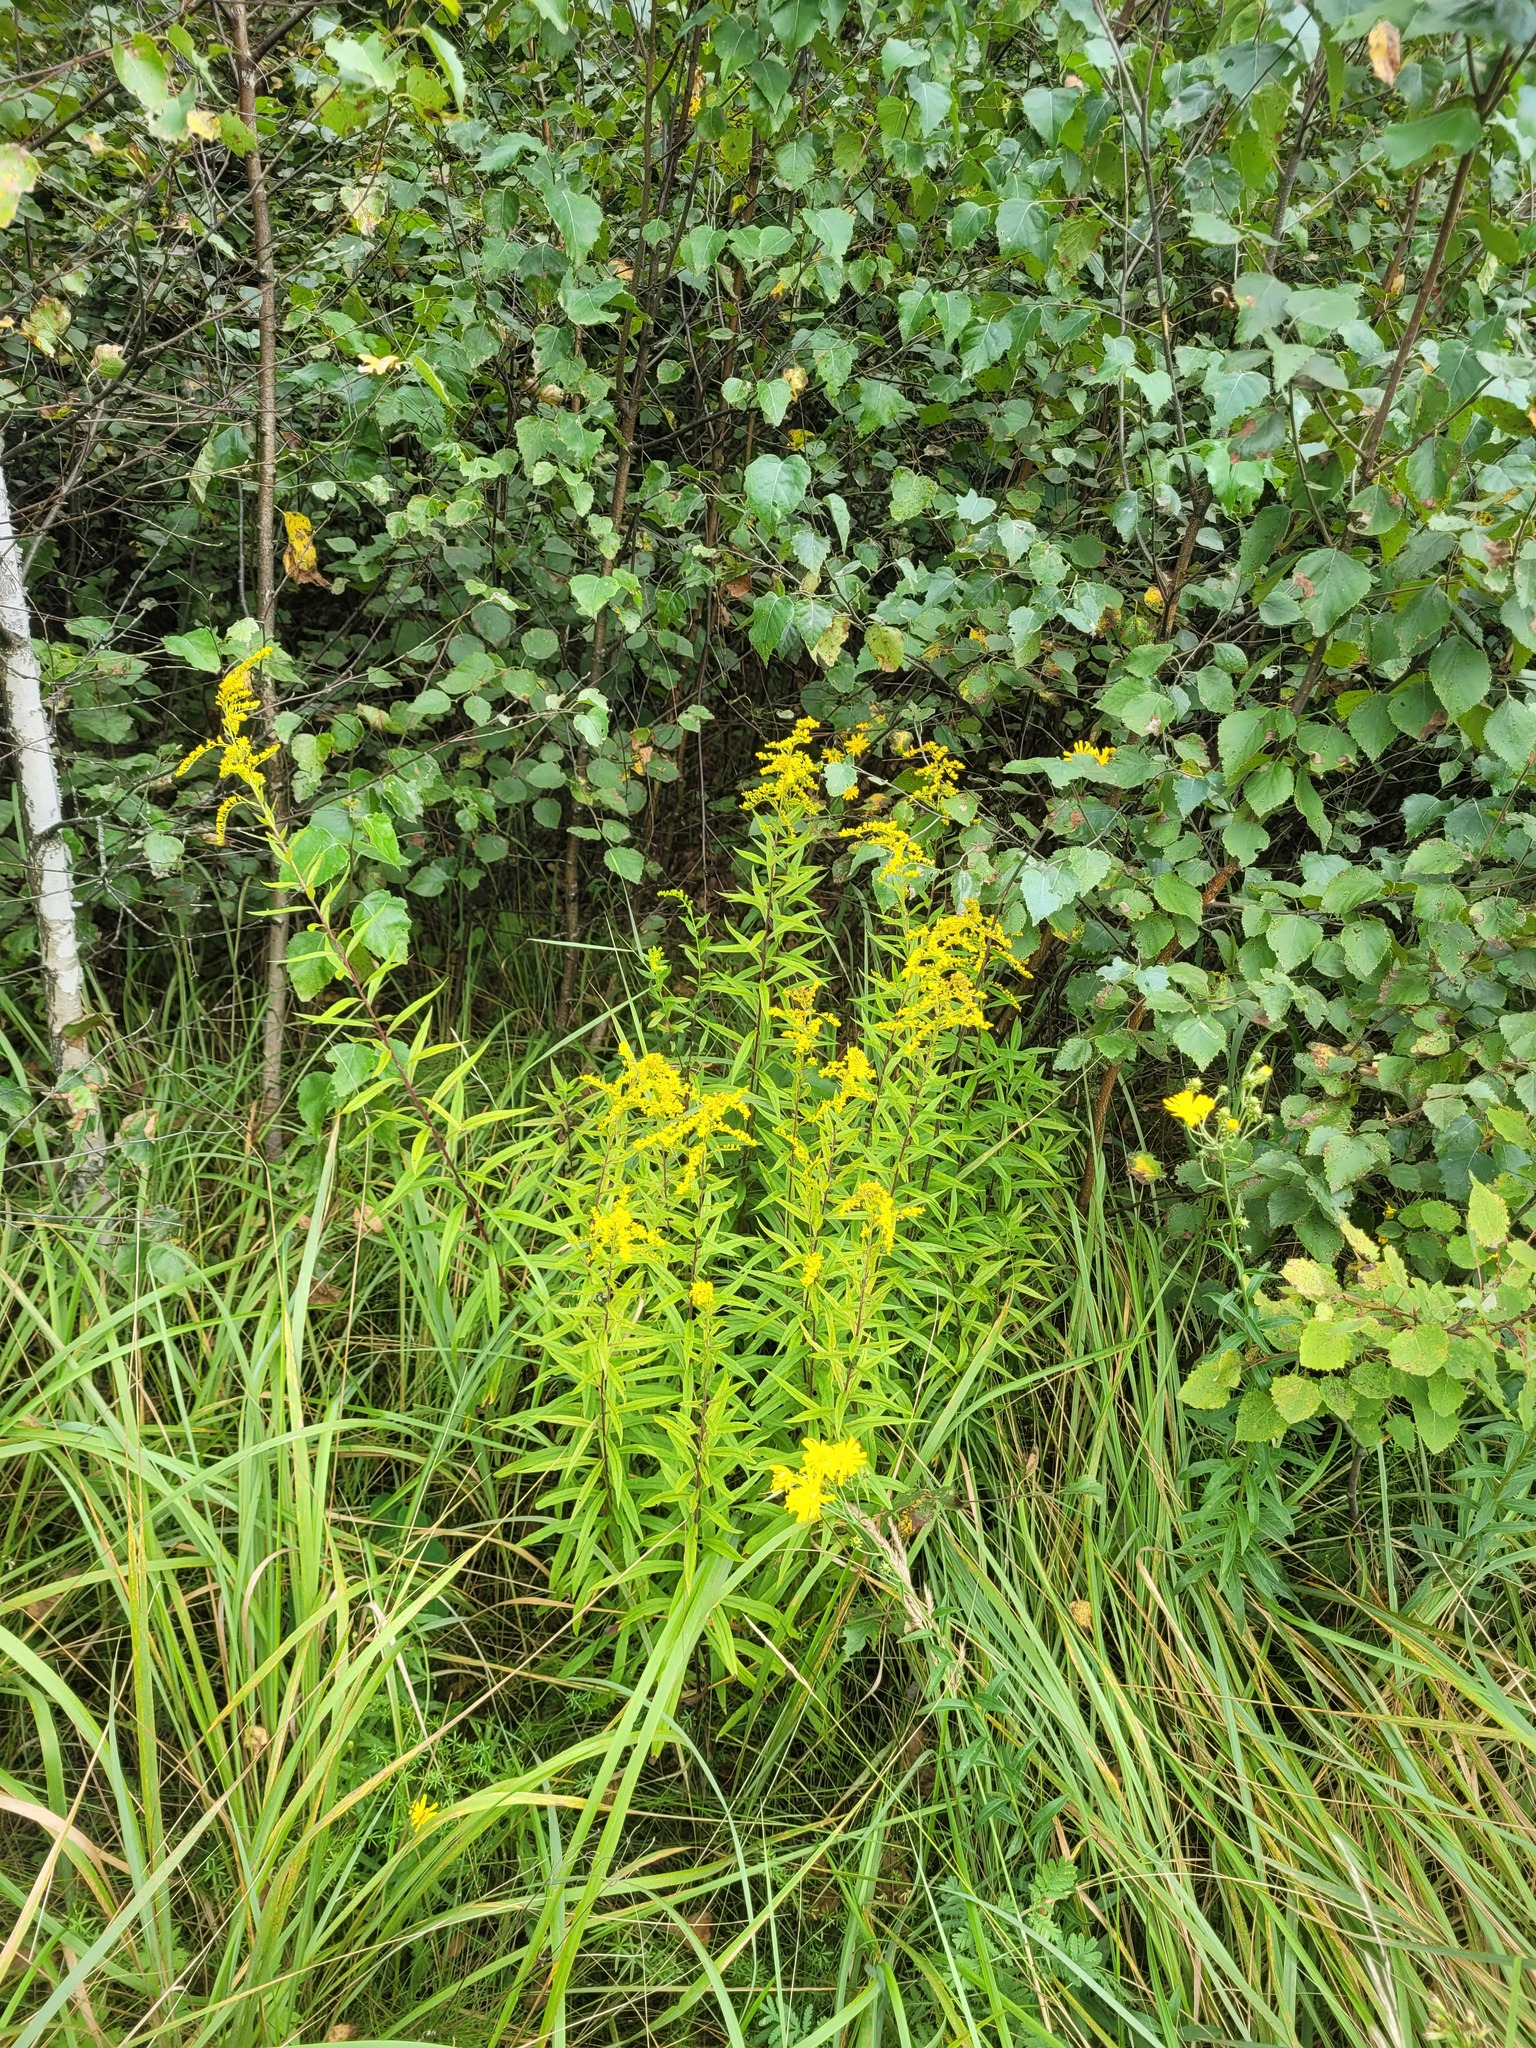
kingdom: Plantae
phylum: Tracheophyta
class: Magnoliopsida
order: Asterales
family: Asteraceae
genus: Solidago
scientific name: Solidago canadensis
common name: Canada goldenrod
